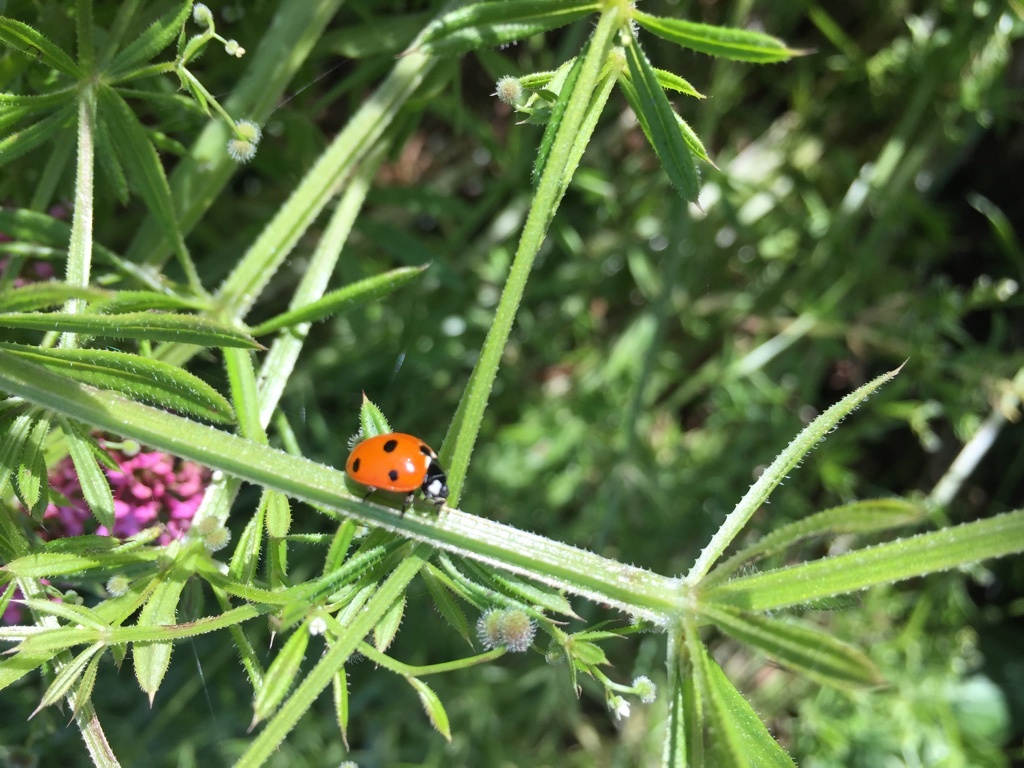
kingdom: Animalia
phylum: Arthropoda
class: Insecta
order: Coleoptera
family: Coccinellidae
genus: Coccinella
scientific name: Coccinella septempunctata
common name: Sevenspotted lady beetle
